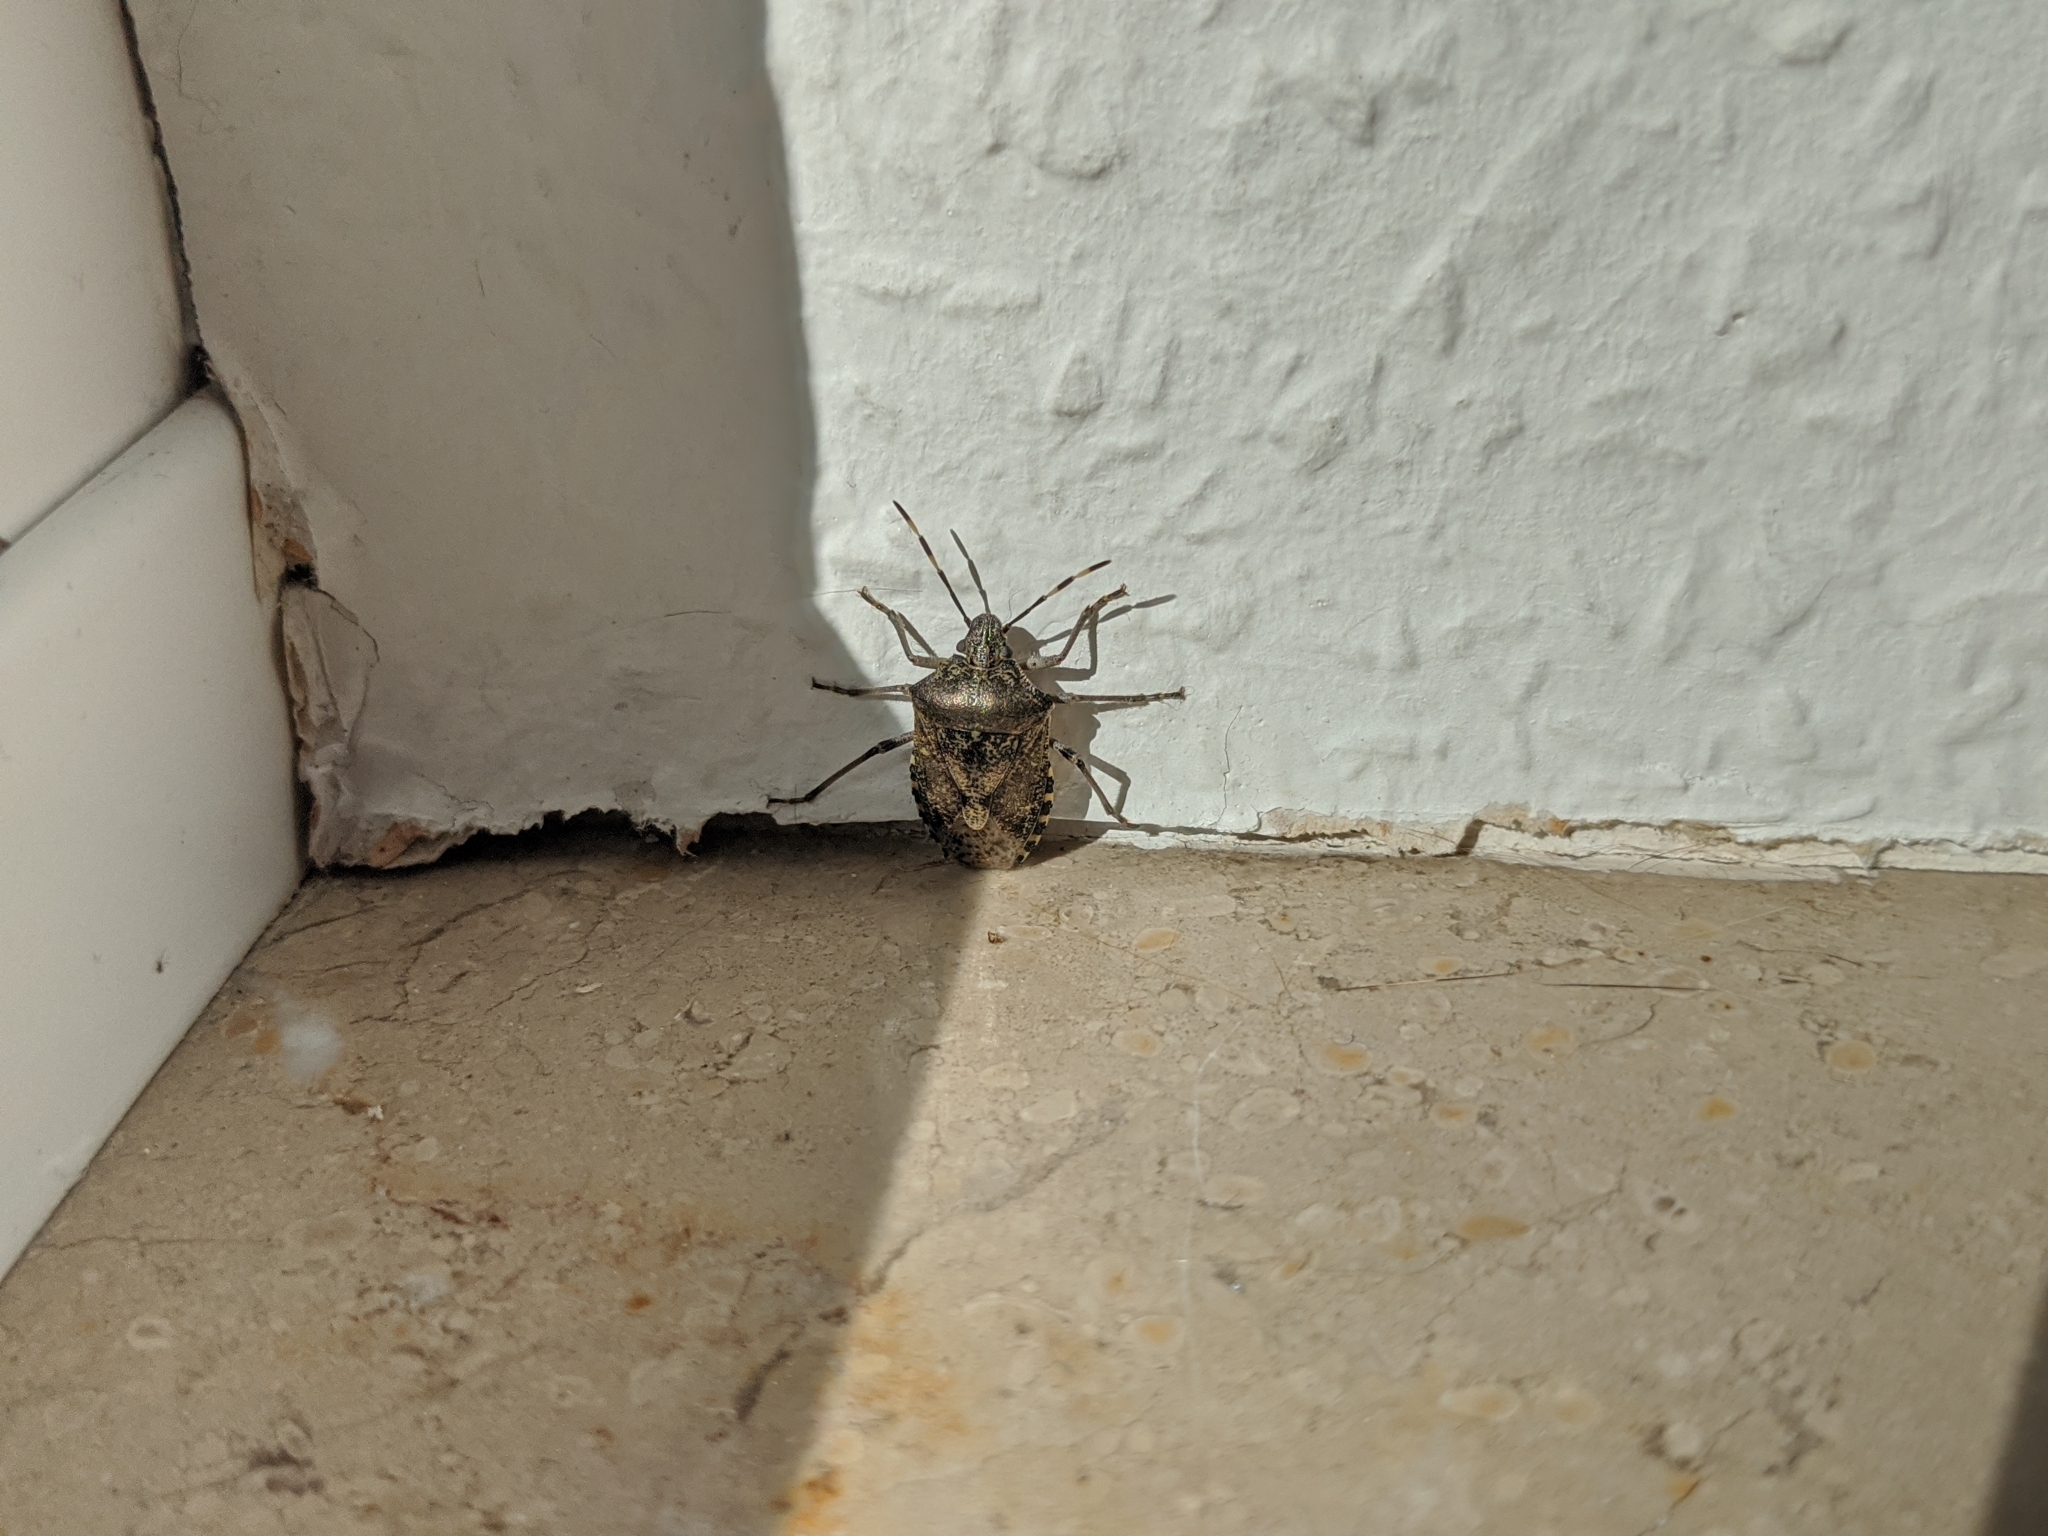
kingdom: Animalia
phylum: Arthropoda
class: Insecta
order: Hemiptera
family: Pentatomidae
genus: Rhaphigaster
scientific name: Rhaphigaster nebulosa
